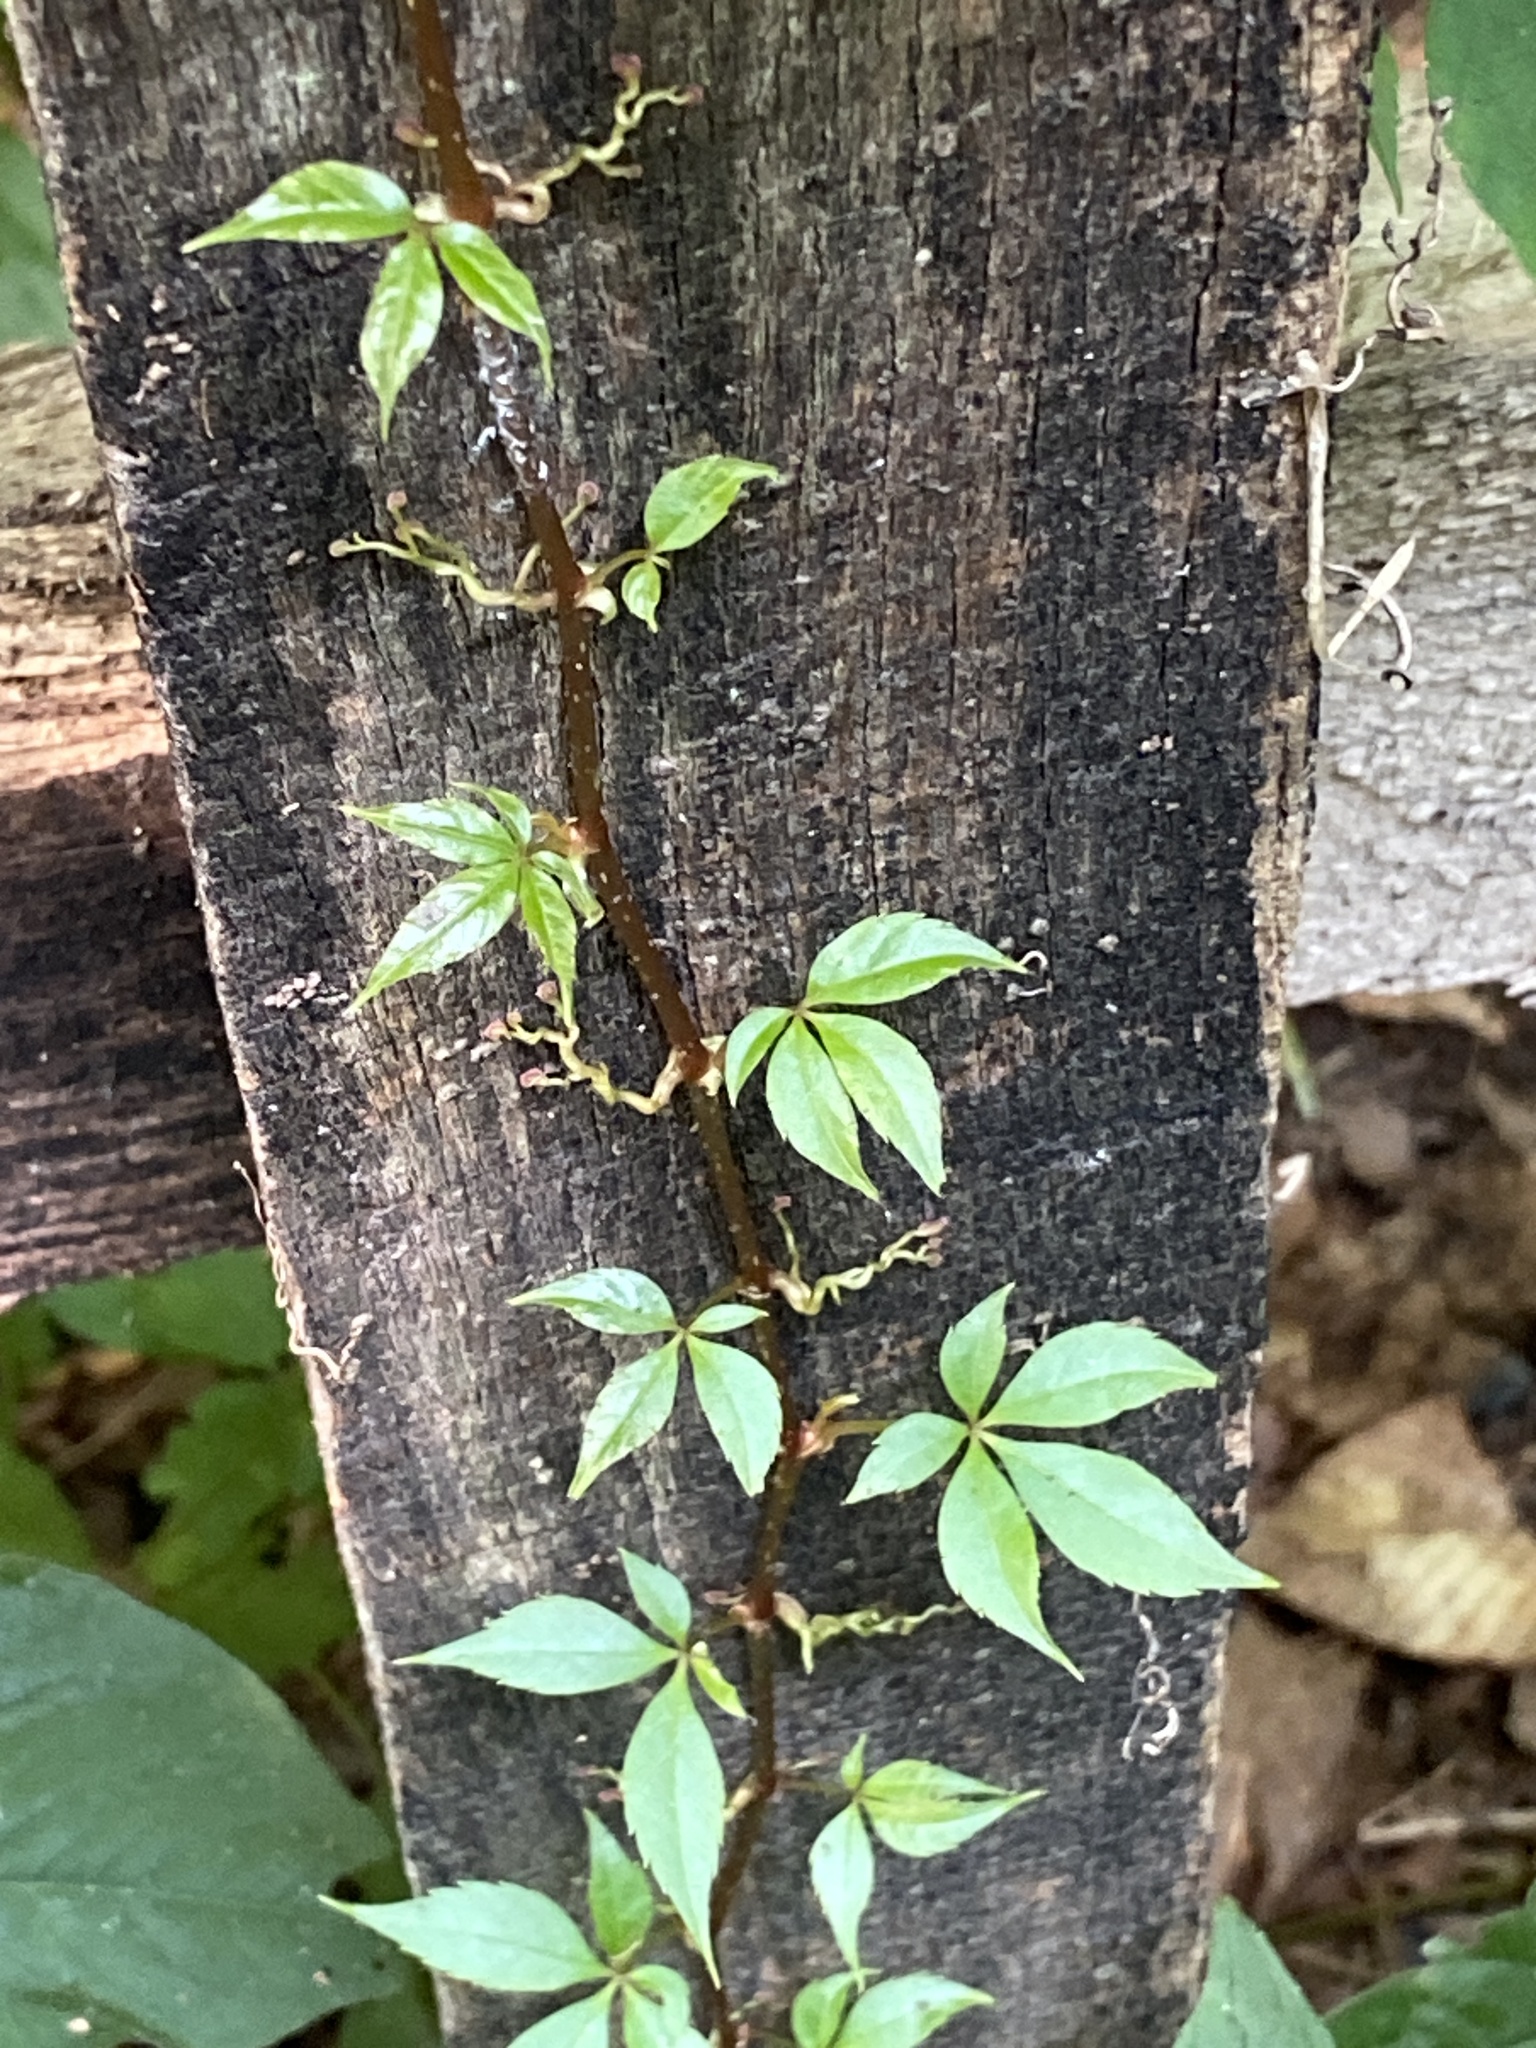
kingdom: Plantae
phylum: Tracheophyta
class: Magnoliopsida
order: Vitales
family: Vitaceae
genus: Parthenocissus
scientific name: Parthenocissus quinquefolia
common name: Virginia-creeper
